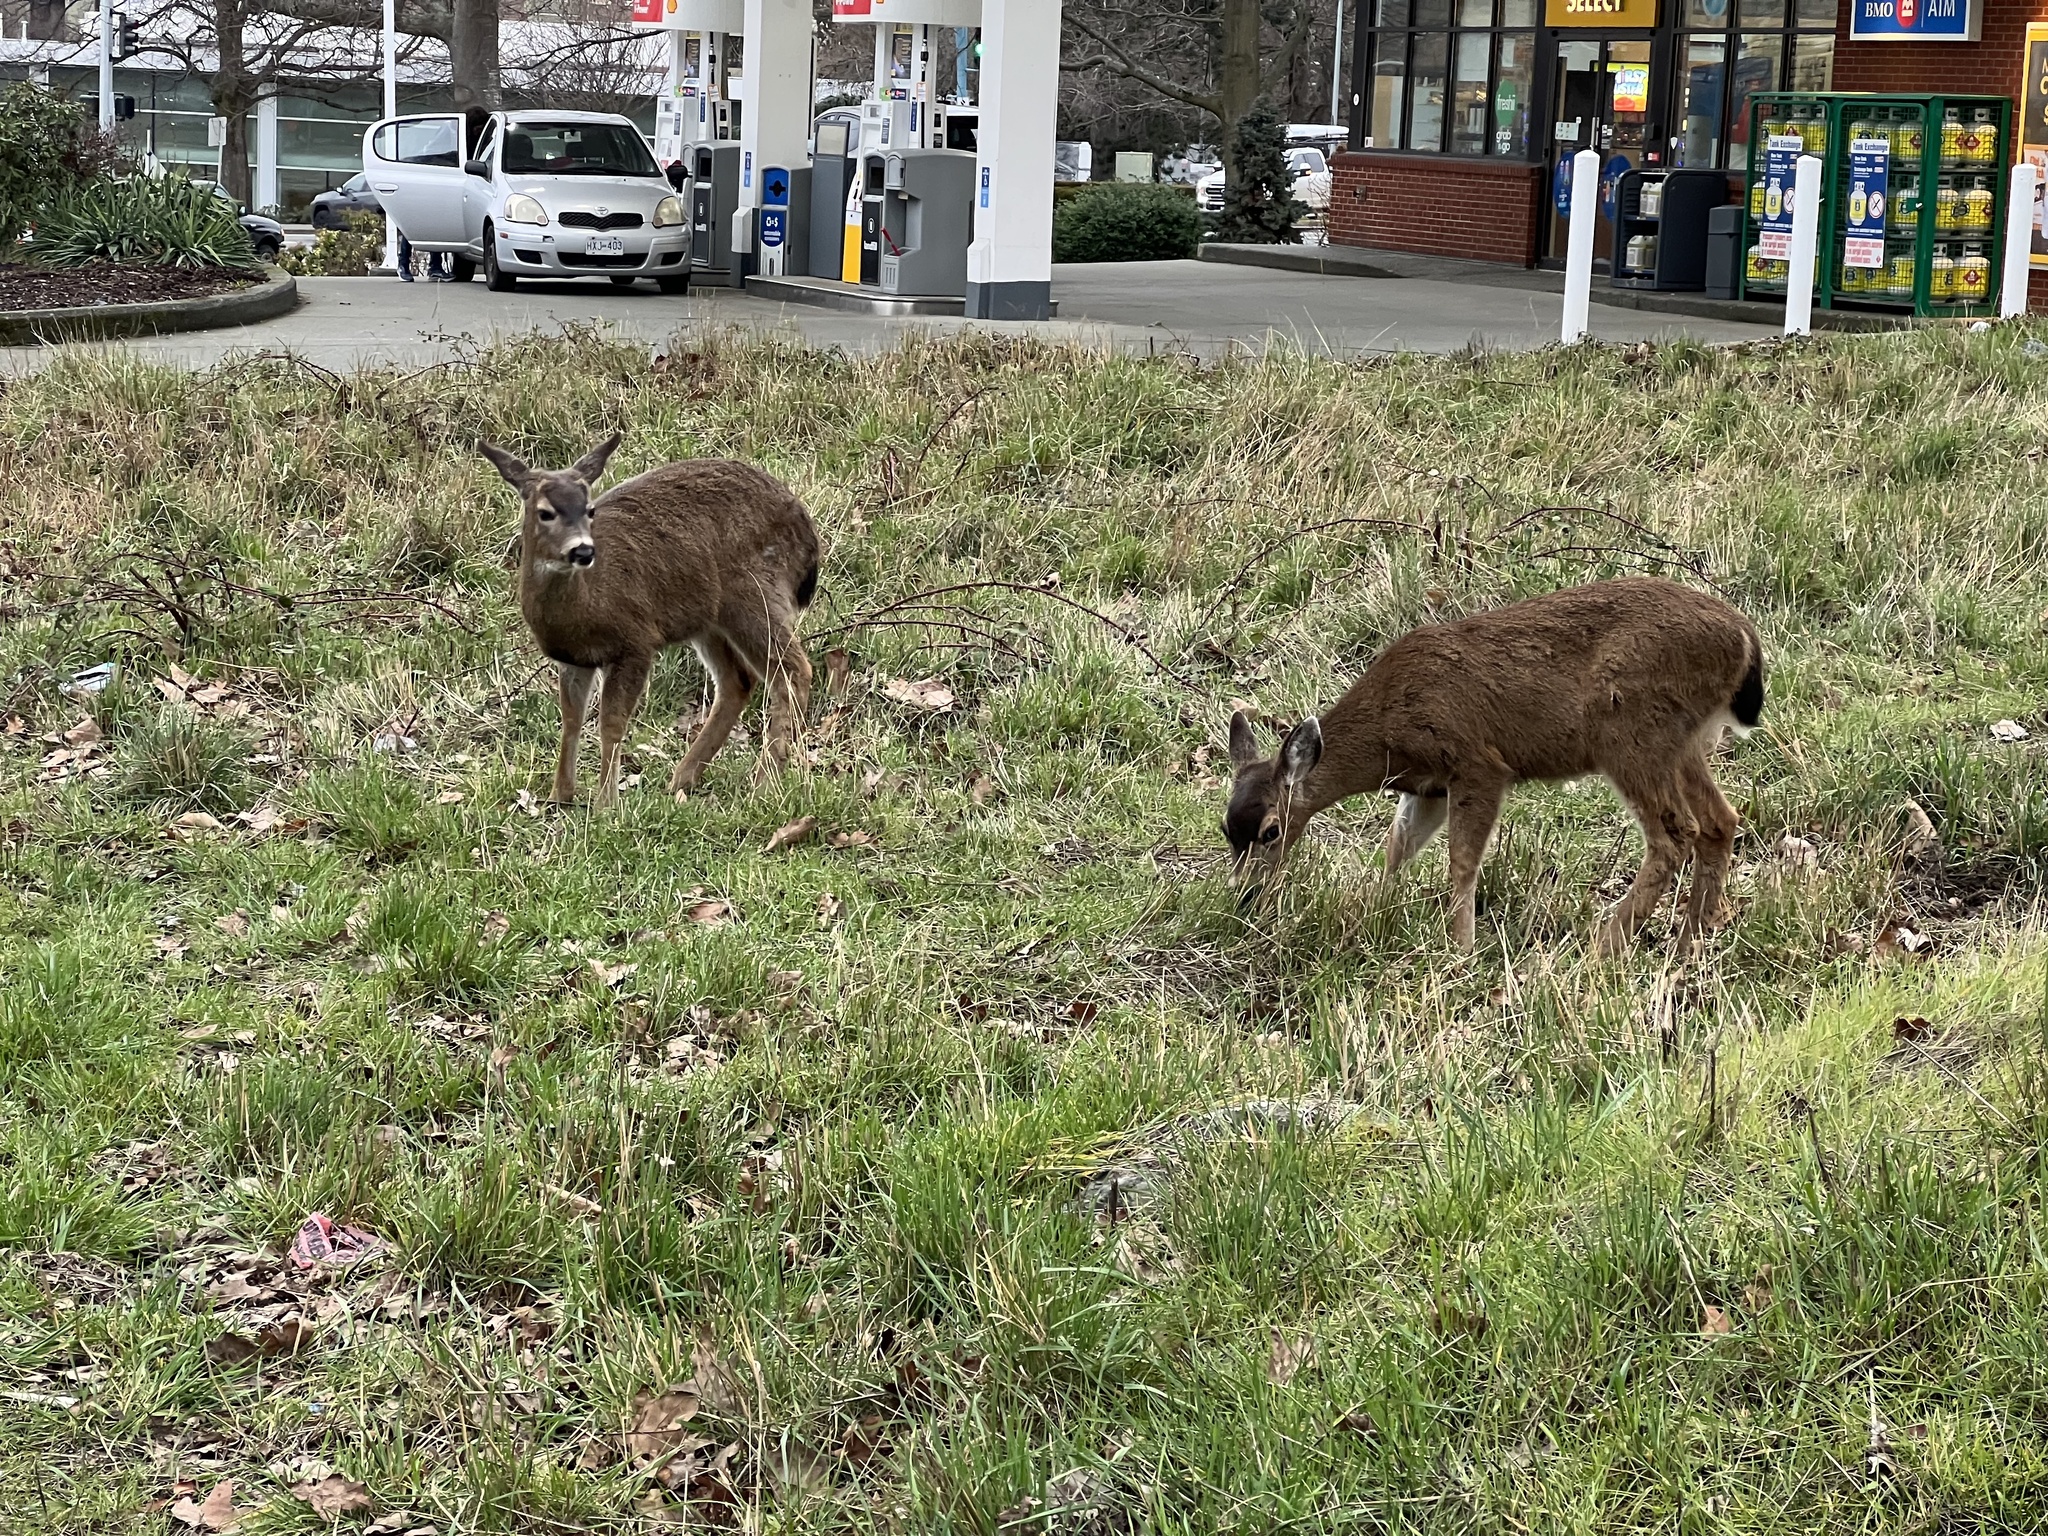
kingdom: Animalia
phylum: Chordata
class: Mammalia
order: Artiodactyla
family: Cervidae
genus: Odocoileus
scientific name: Odocoileus hemionus
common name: Mule deer
